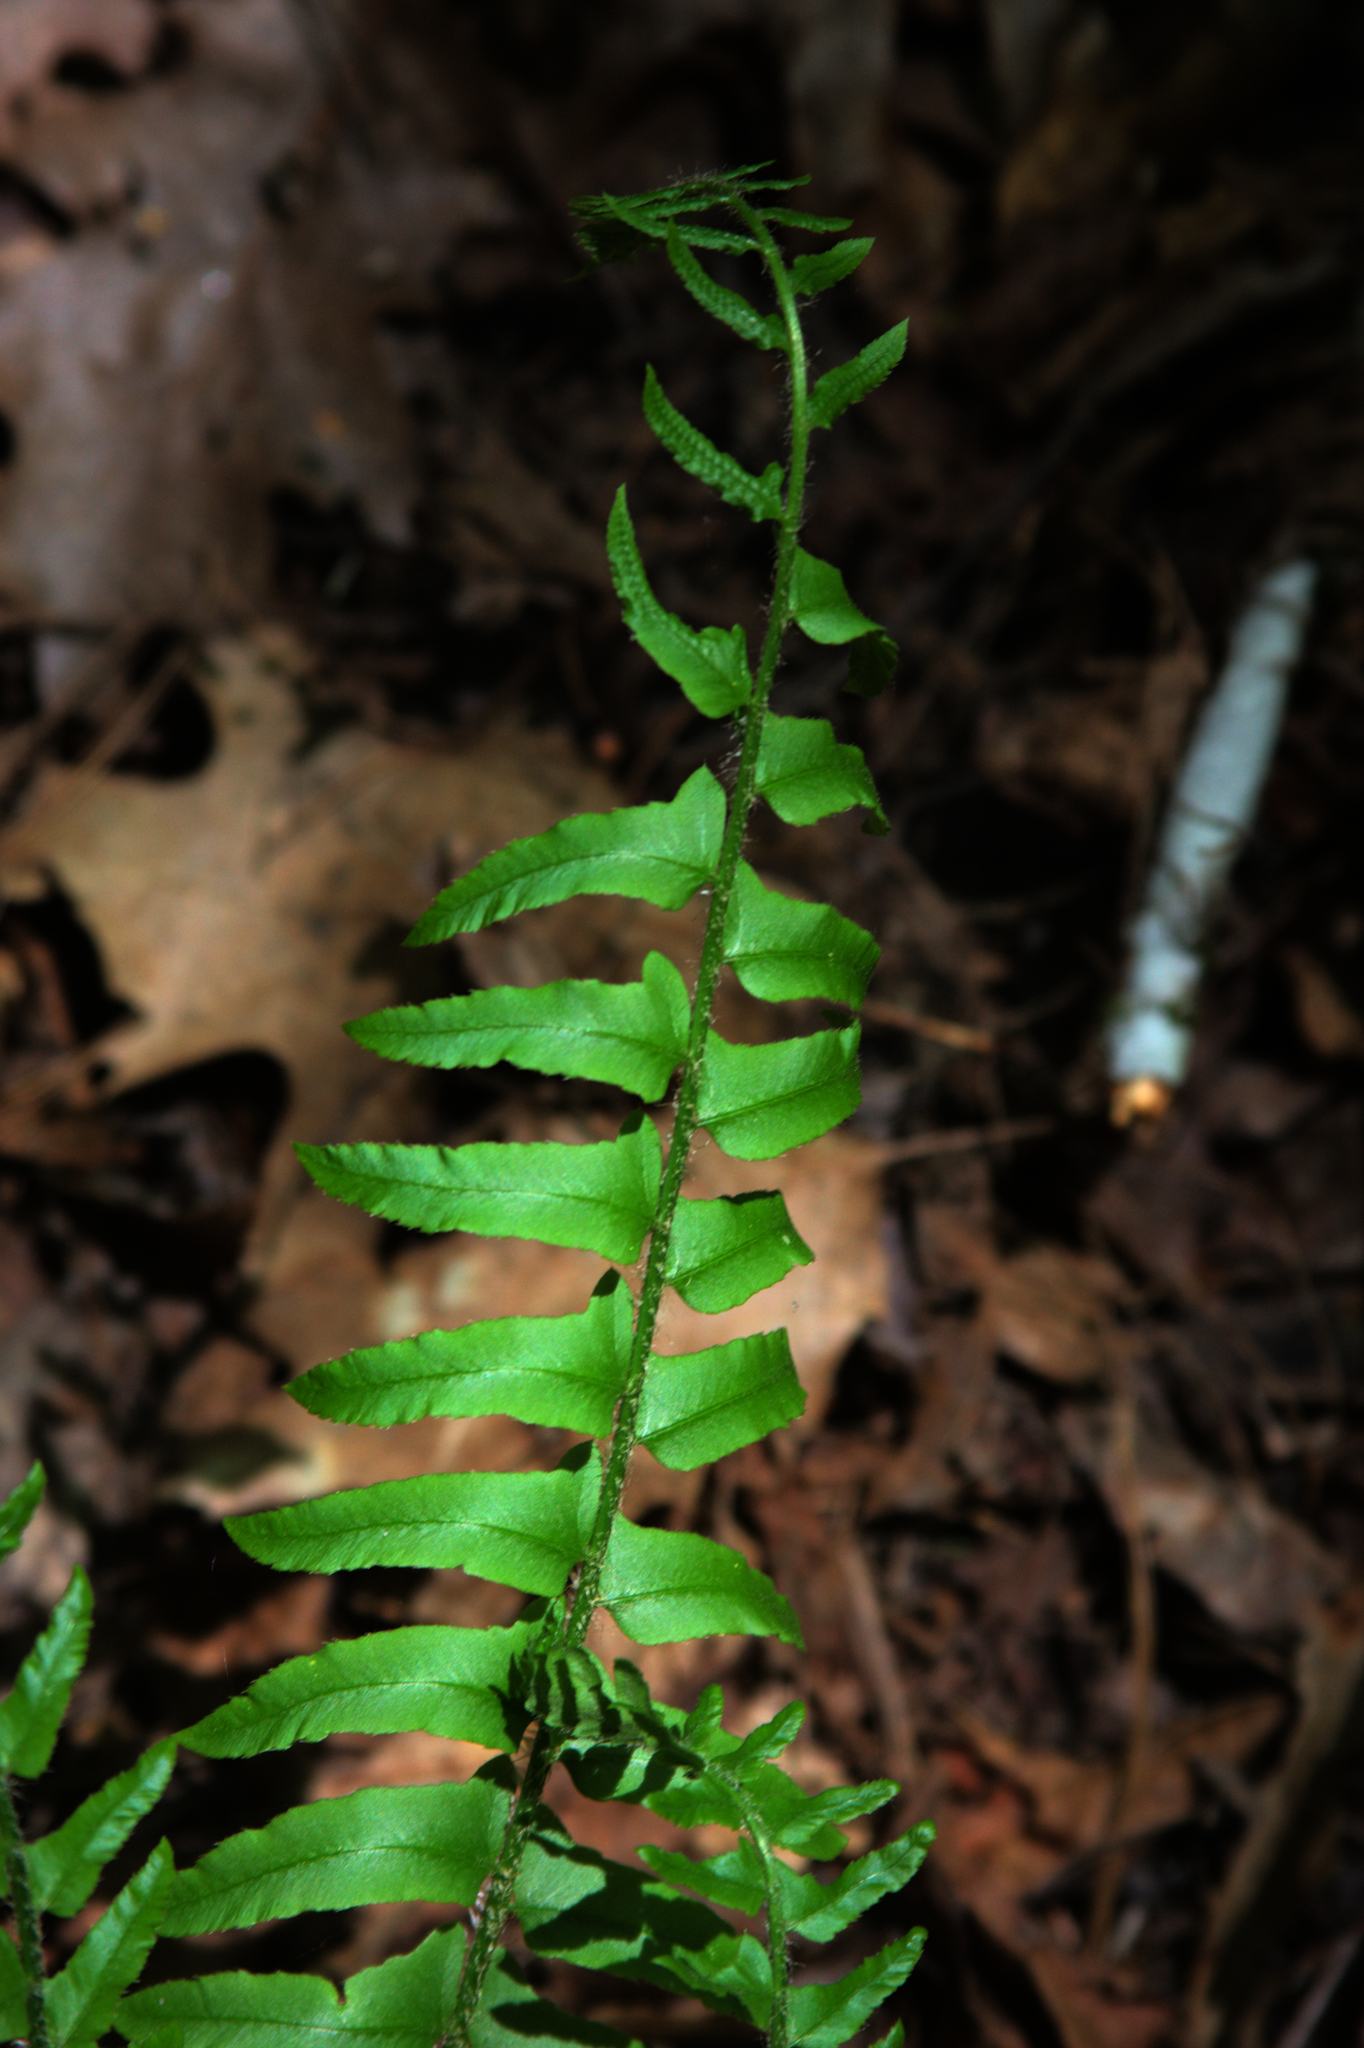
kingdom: Plantae
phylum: Tracheophyta
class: Polypodiopsida
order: Polypodiales
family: Dryopteridaceae
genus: Polystichum
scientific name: Polystichum acrostichoides
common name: Christmas fern
